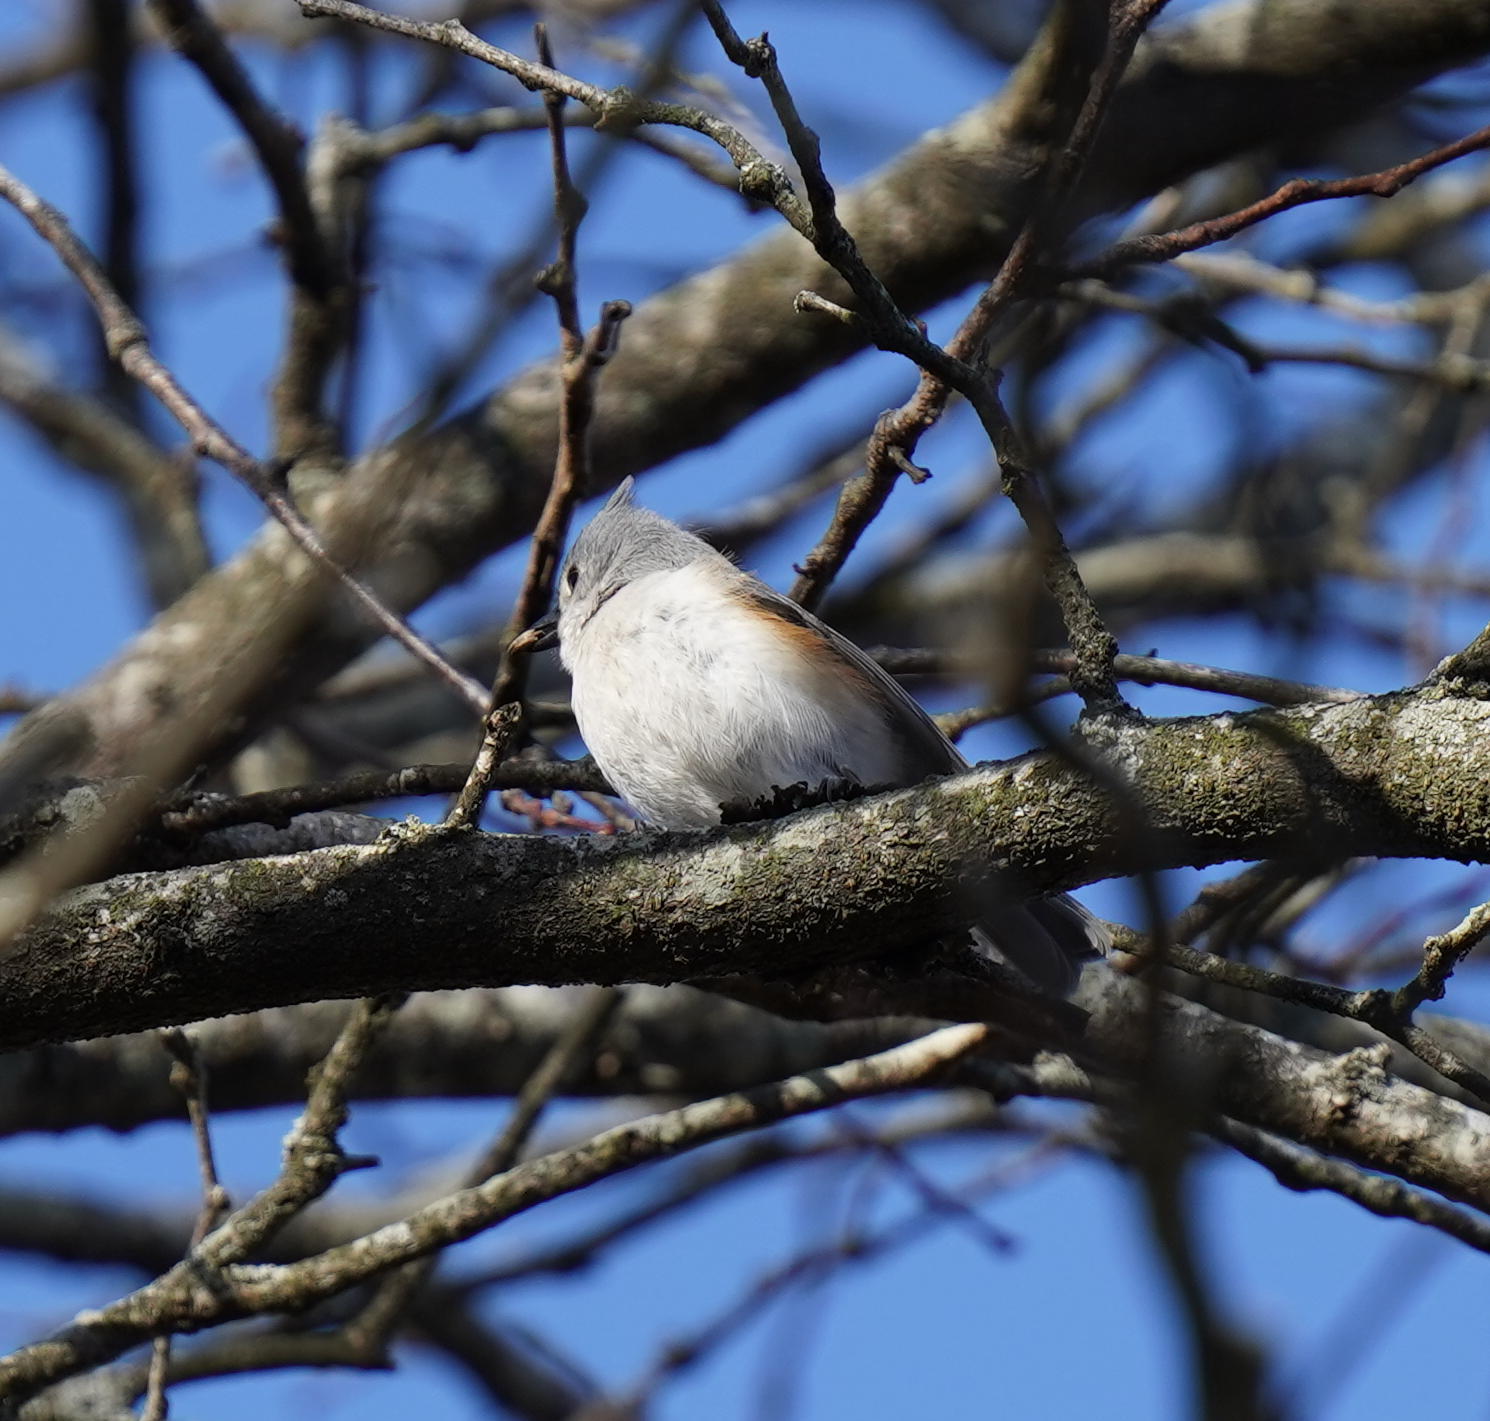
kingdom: Animalia
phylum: Chordata
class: Aves
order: Passeriformes
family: Paridae
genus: Baeolophus
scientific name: Baeolophus bicolor
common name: Tufted titmouse
